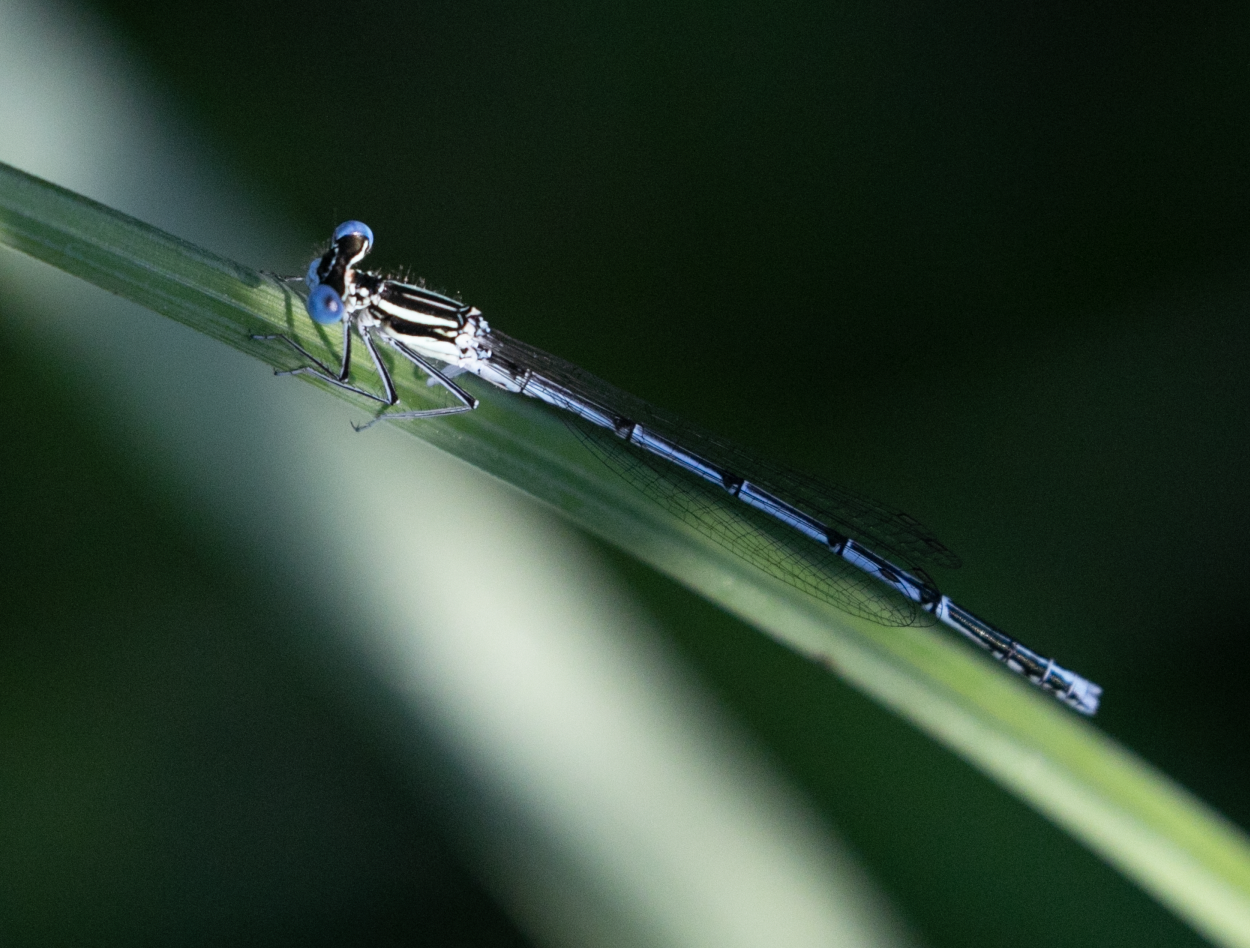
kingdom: Animalia
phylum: Arthropoda
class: Insecta
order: Odonata
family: Platycnemididae
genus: Platycnemis
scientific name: Platycnemis pennipes
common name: White-legged damselfly
